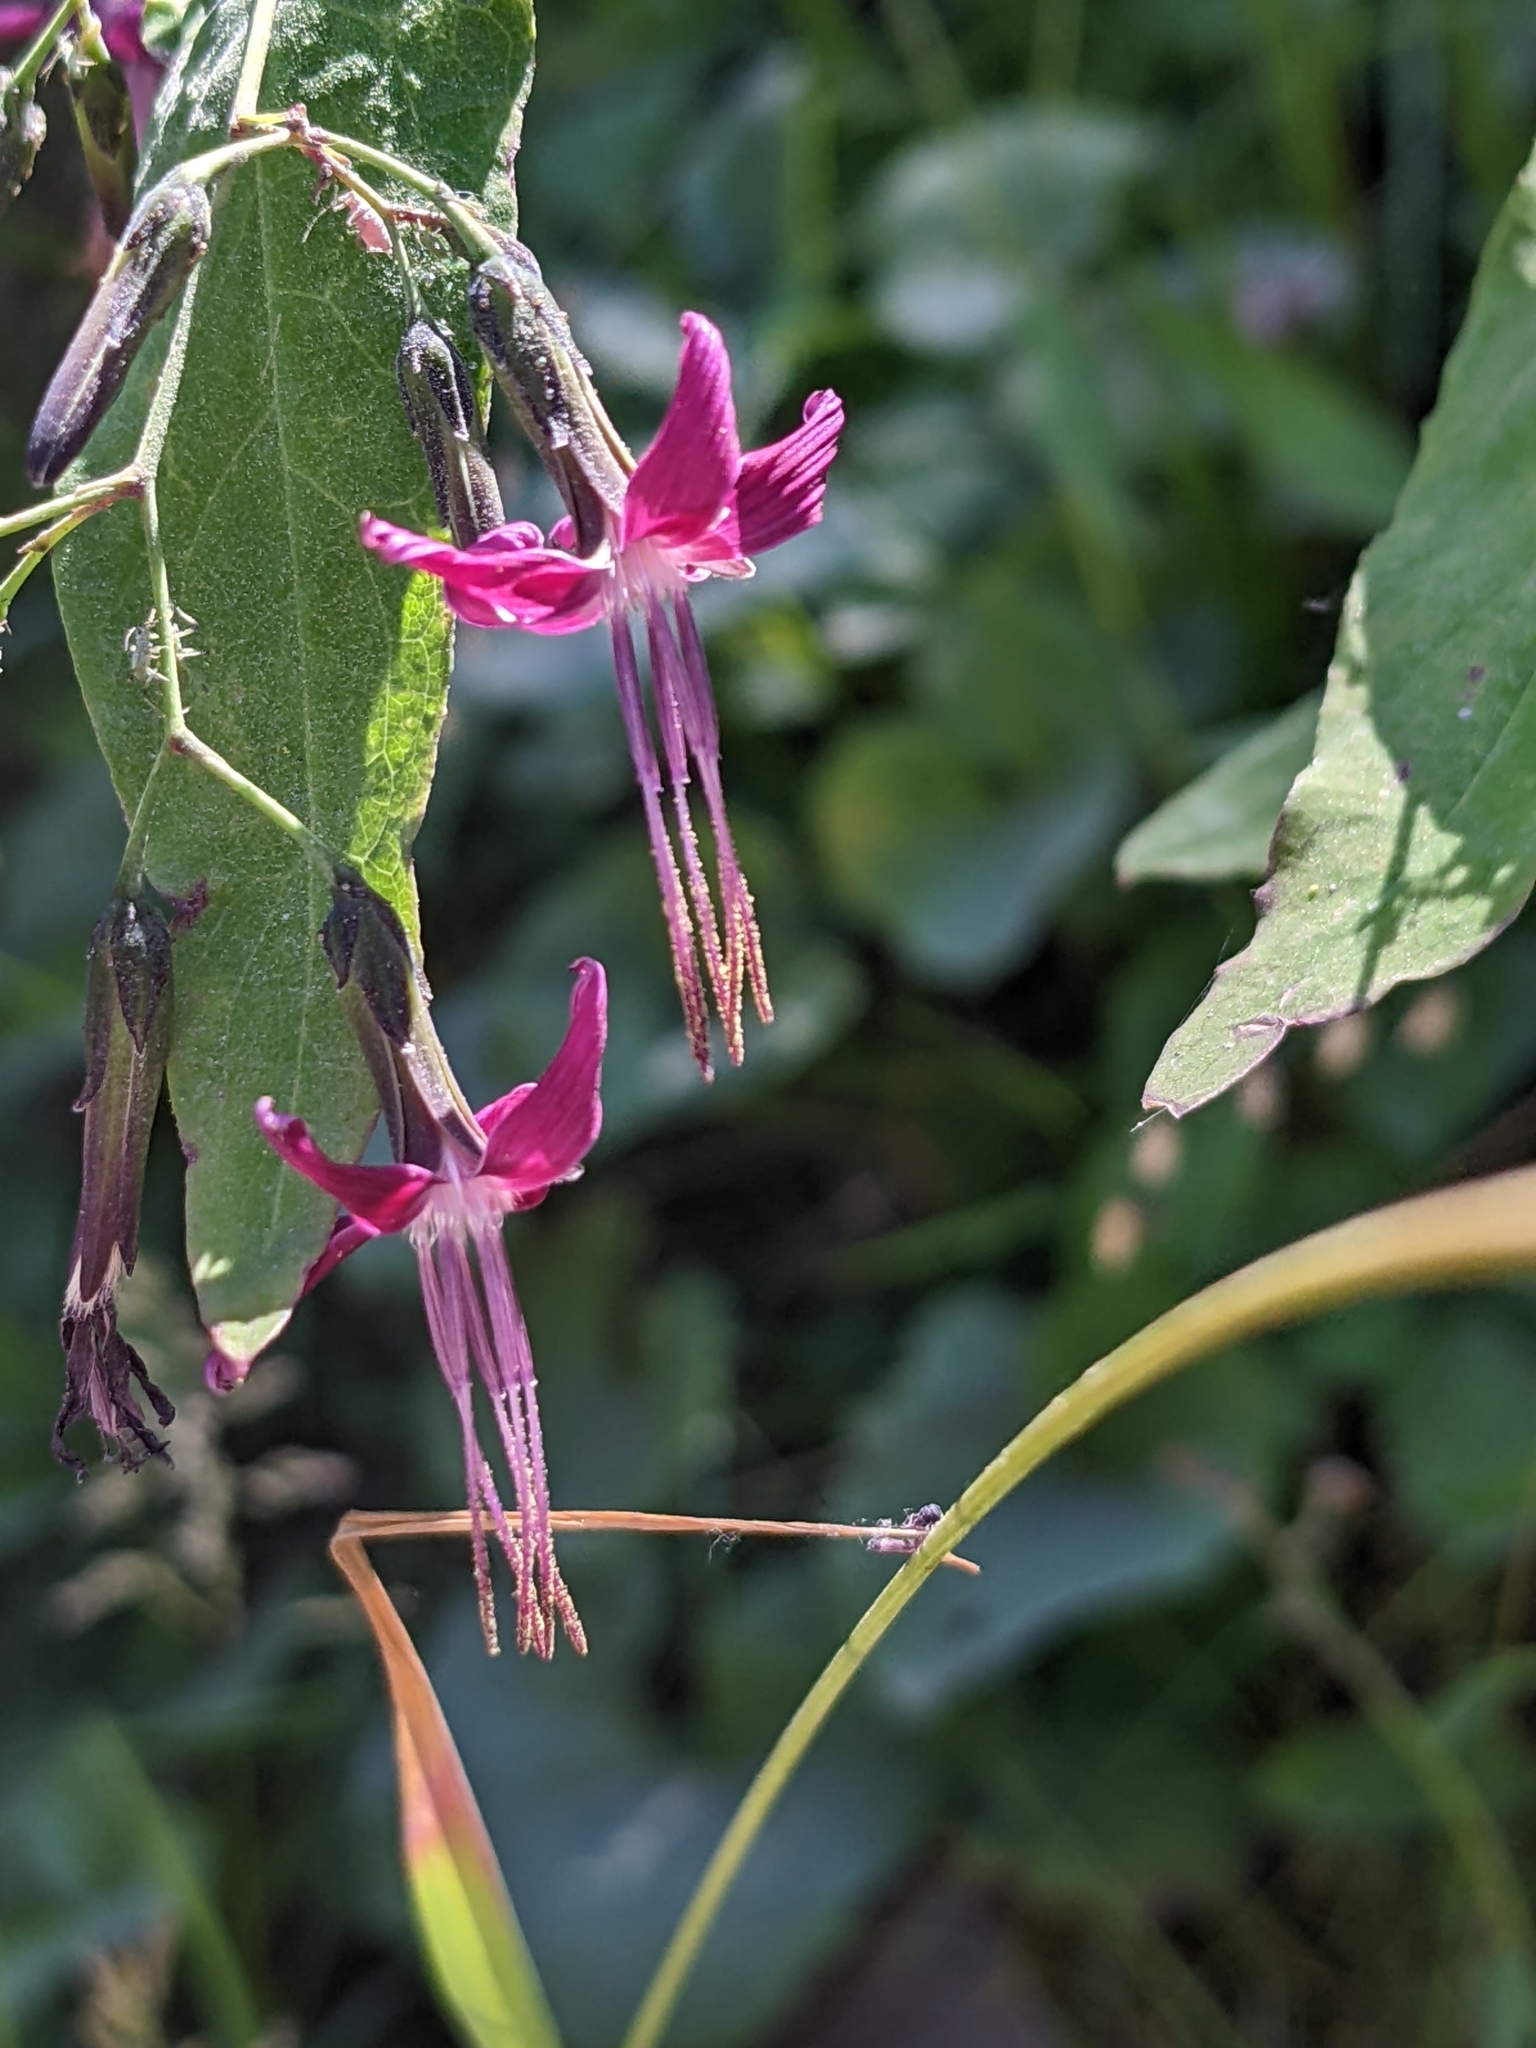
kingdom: Plantae
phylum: Tracheophyta
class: Magnoliopsida
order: Asterales
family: Asteraceae
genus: Prenanthes
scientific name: Prenanthes purpurea
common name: Purple lettuce
